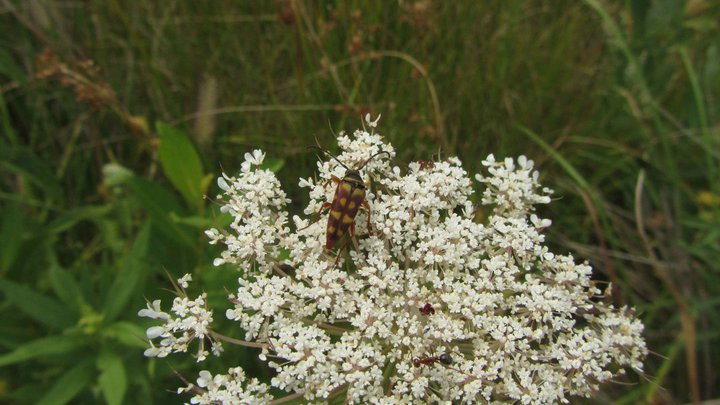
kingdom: Animalia
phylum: Arthropoda
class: Insecta
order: Coleoptera
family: Cerambycidae
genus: Typocerus
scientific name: Typocerus velutinus
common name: Banded longhorn beetle
